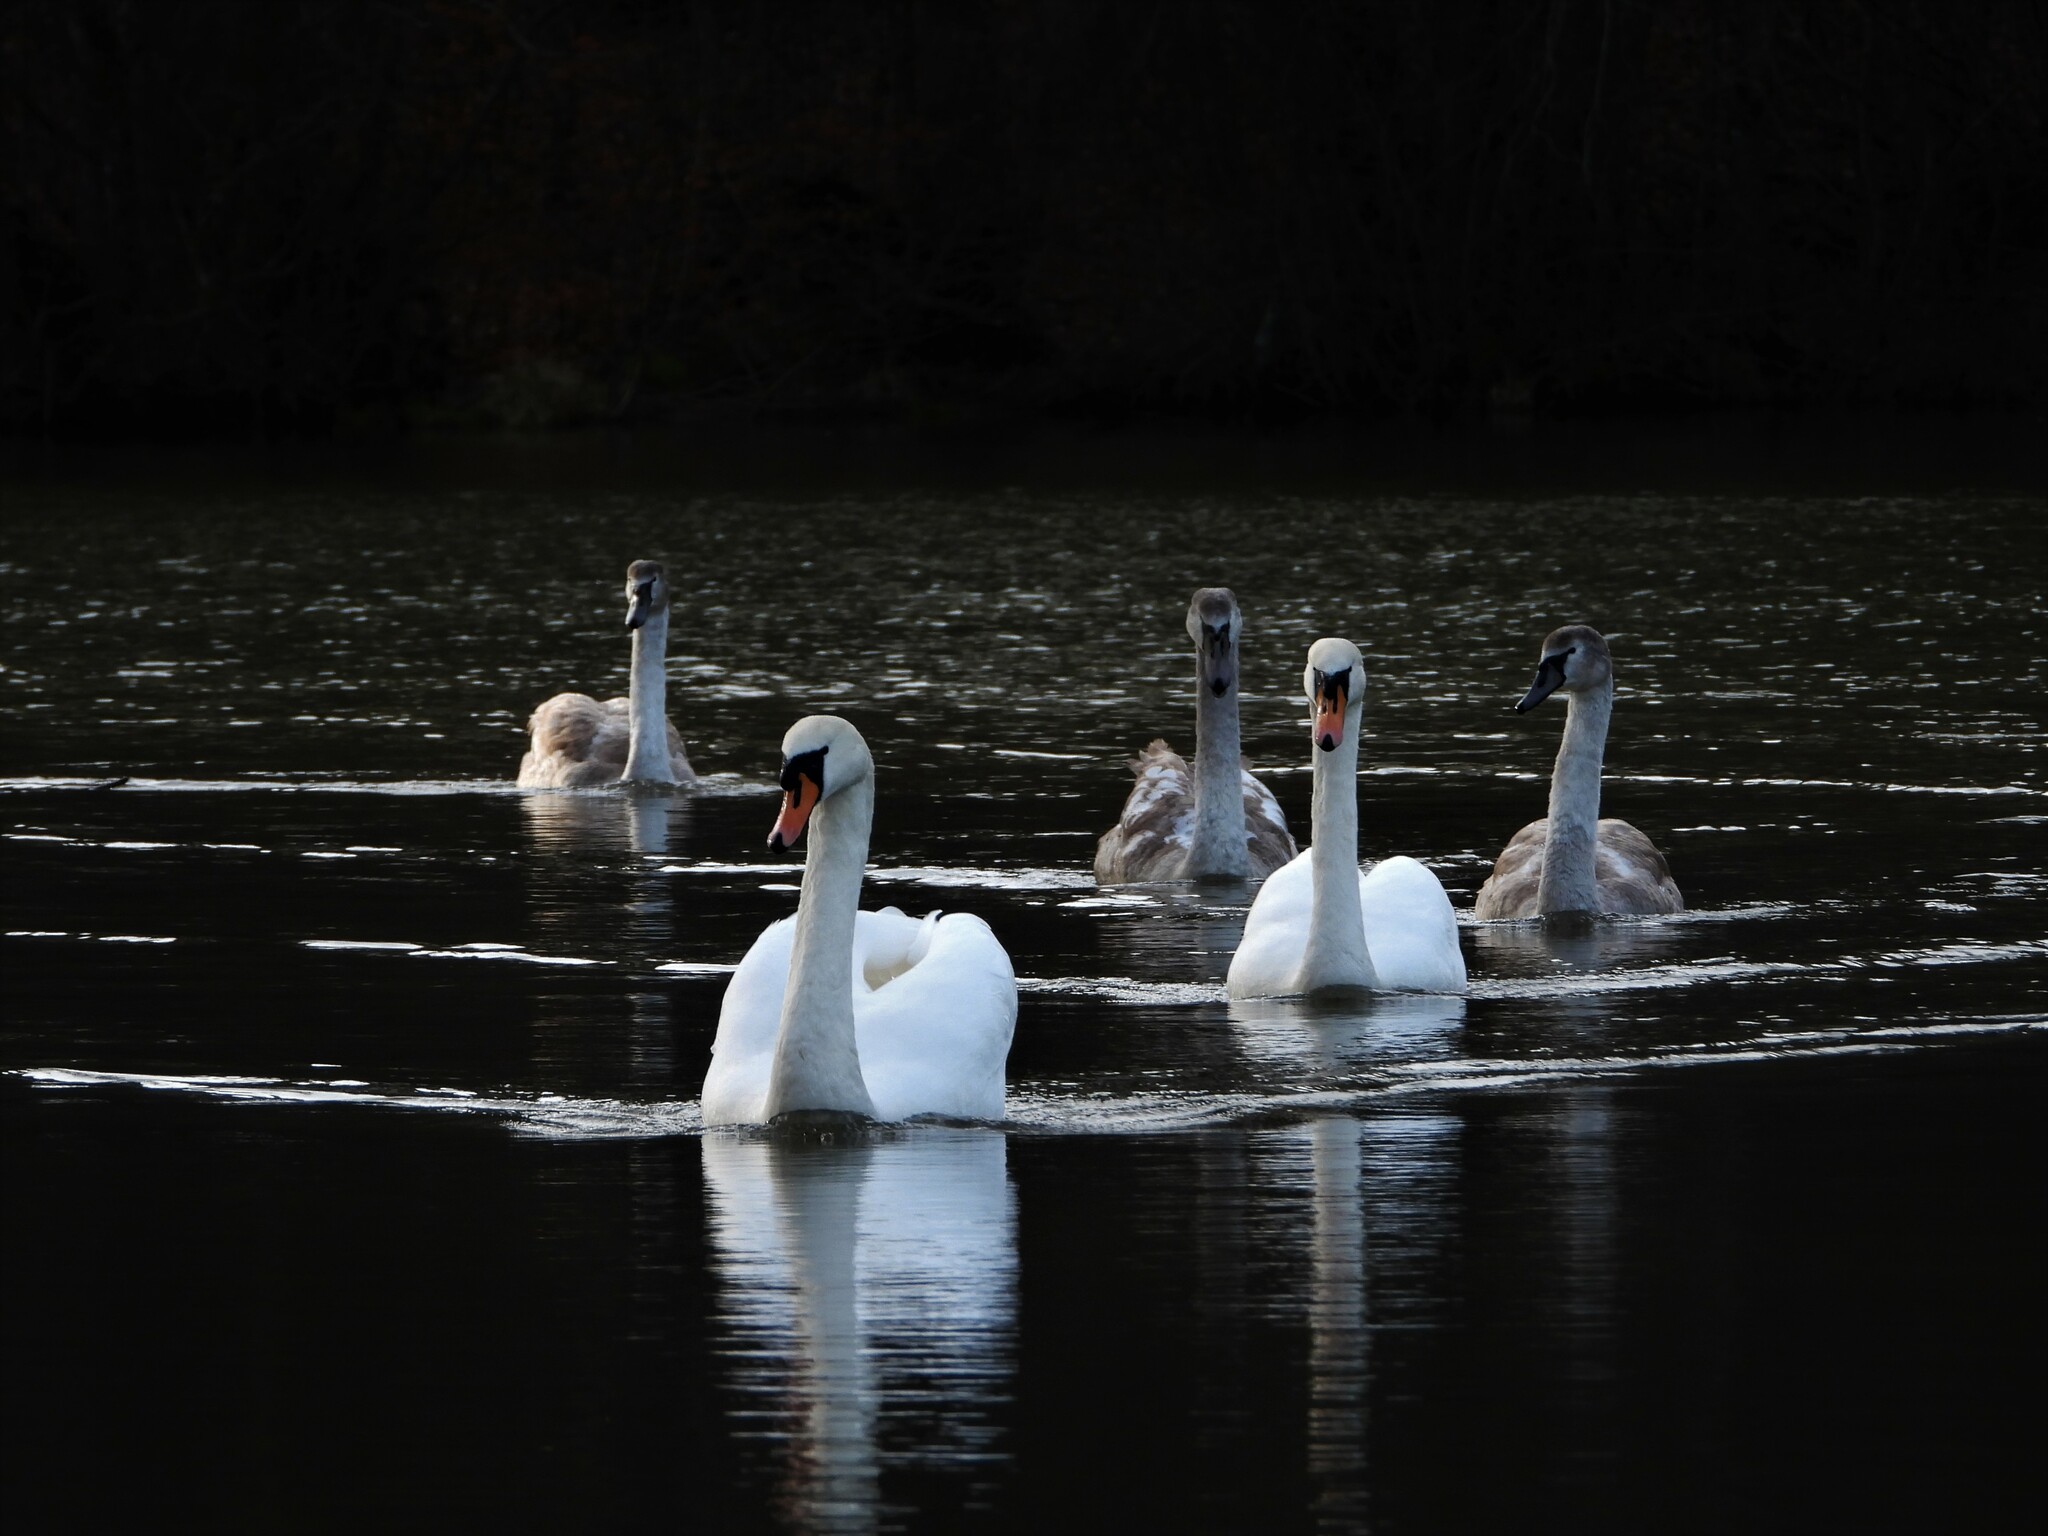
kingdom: Animalia
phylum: Chordata
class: Aves
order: Anseriformes
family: Anatidae
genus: Cygnus
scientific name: Cygnus olor
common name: Mute swan
